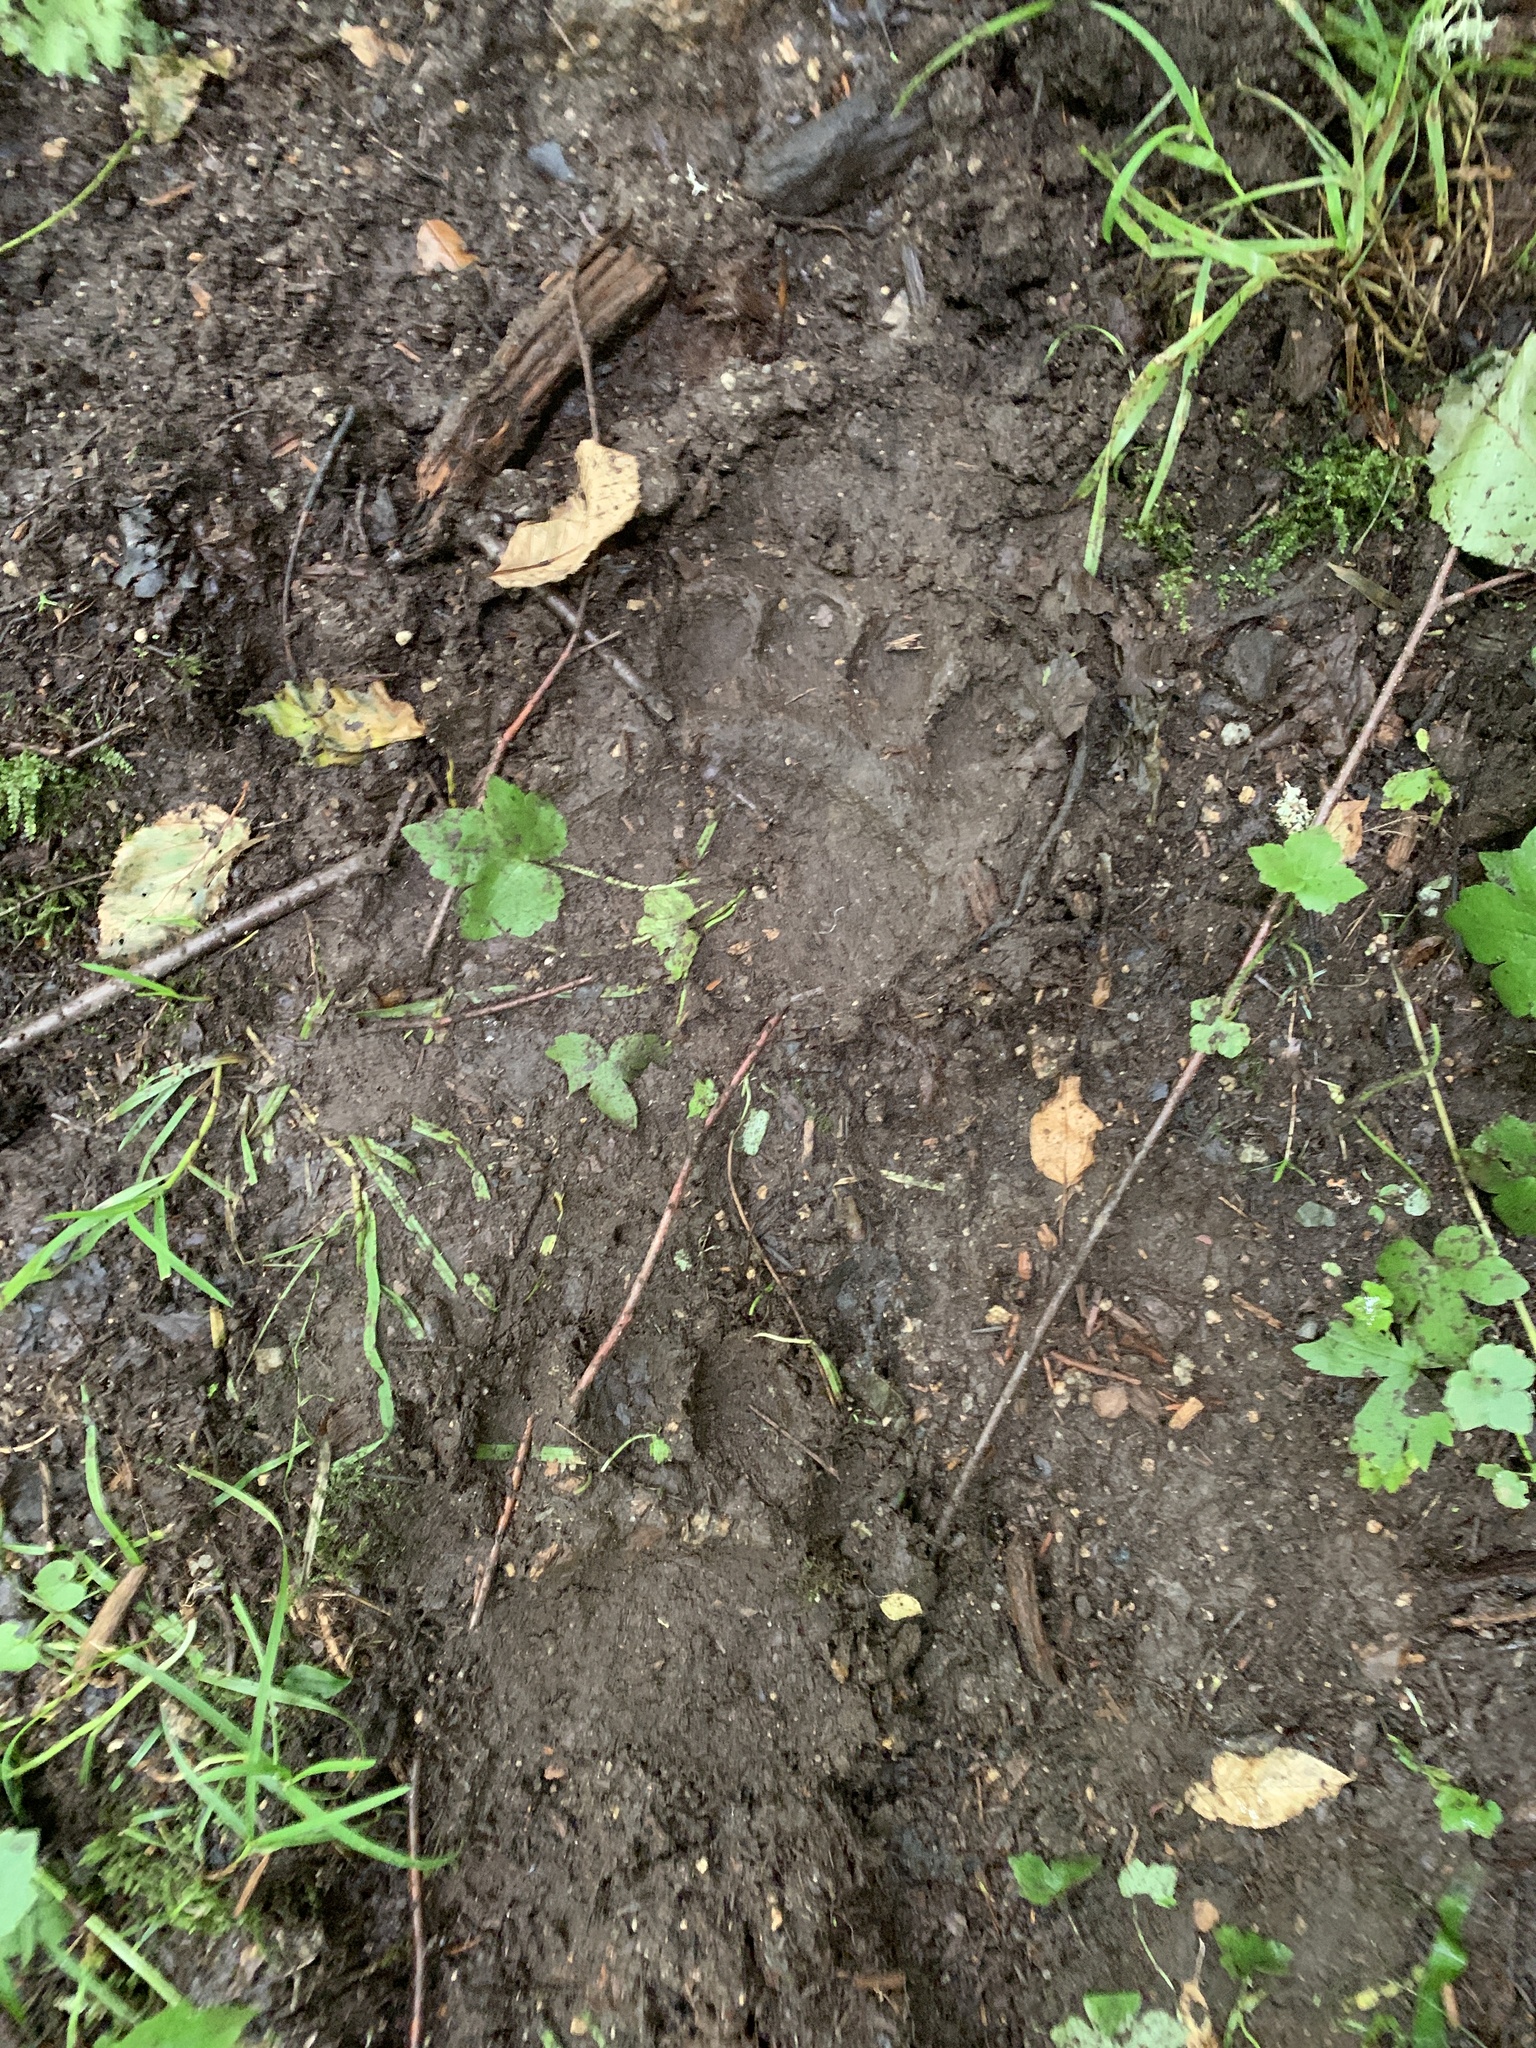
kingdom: Animalia
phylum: Chordata
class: Mammalia
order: Carnivora
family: Ursidae
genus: Ursus
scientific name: Ursus americanus
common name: American black bear
